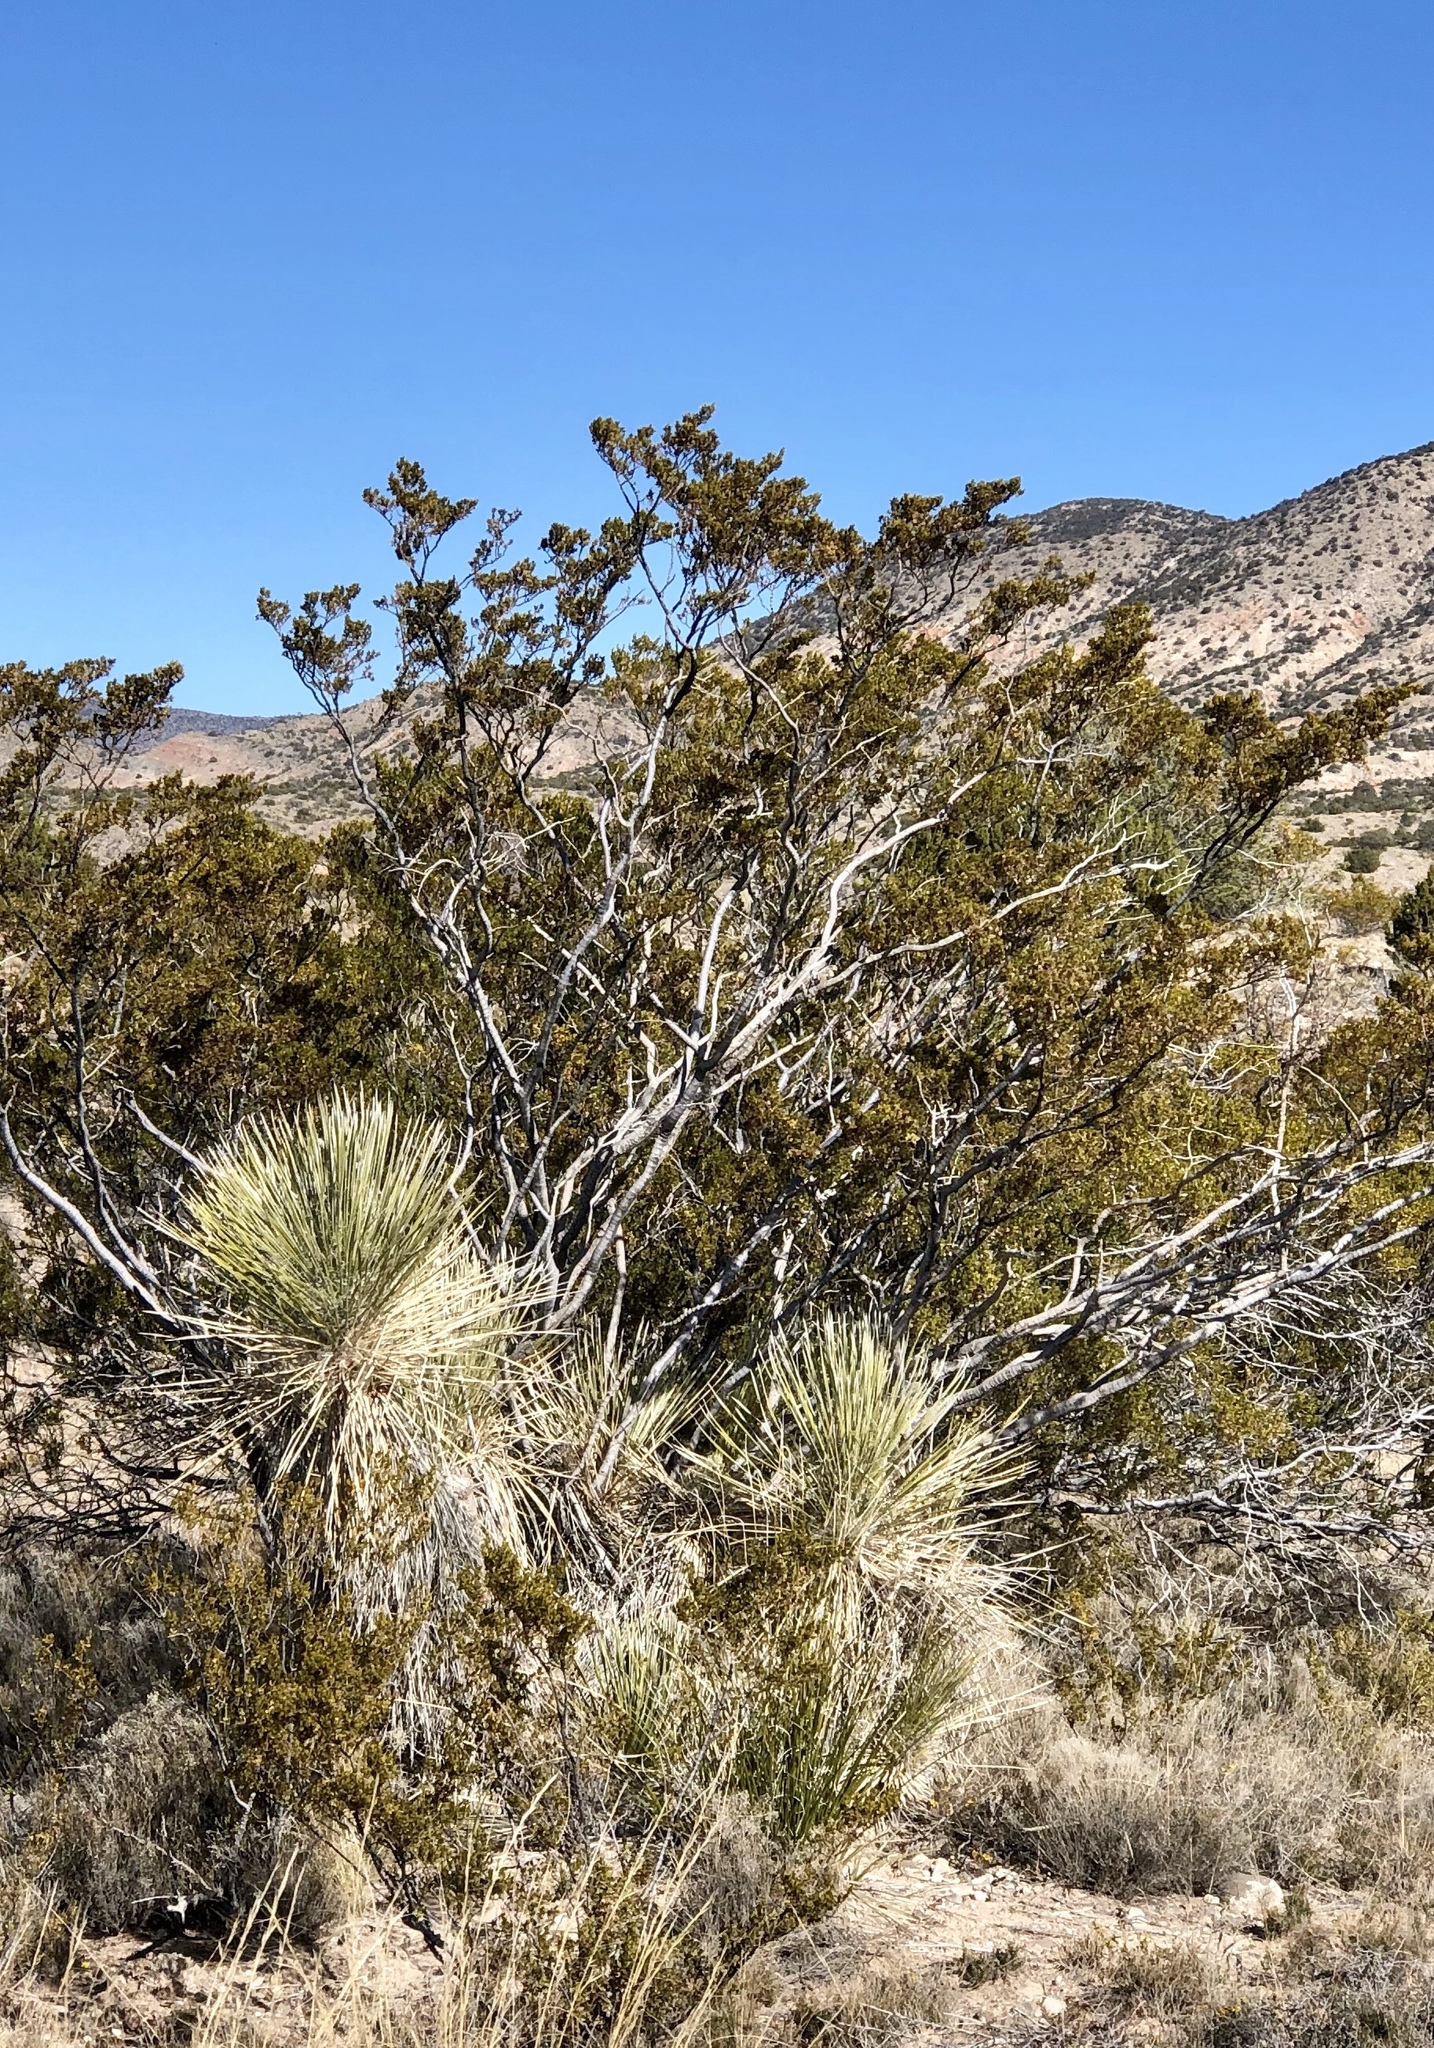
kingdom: Plantae
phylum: Tracheophyta
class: Magnoliopsida
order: Zygophyllales
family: Zygophyllaceae
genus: Larrea
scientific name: Larrea tridentata
